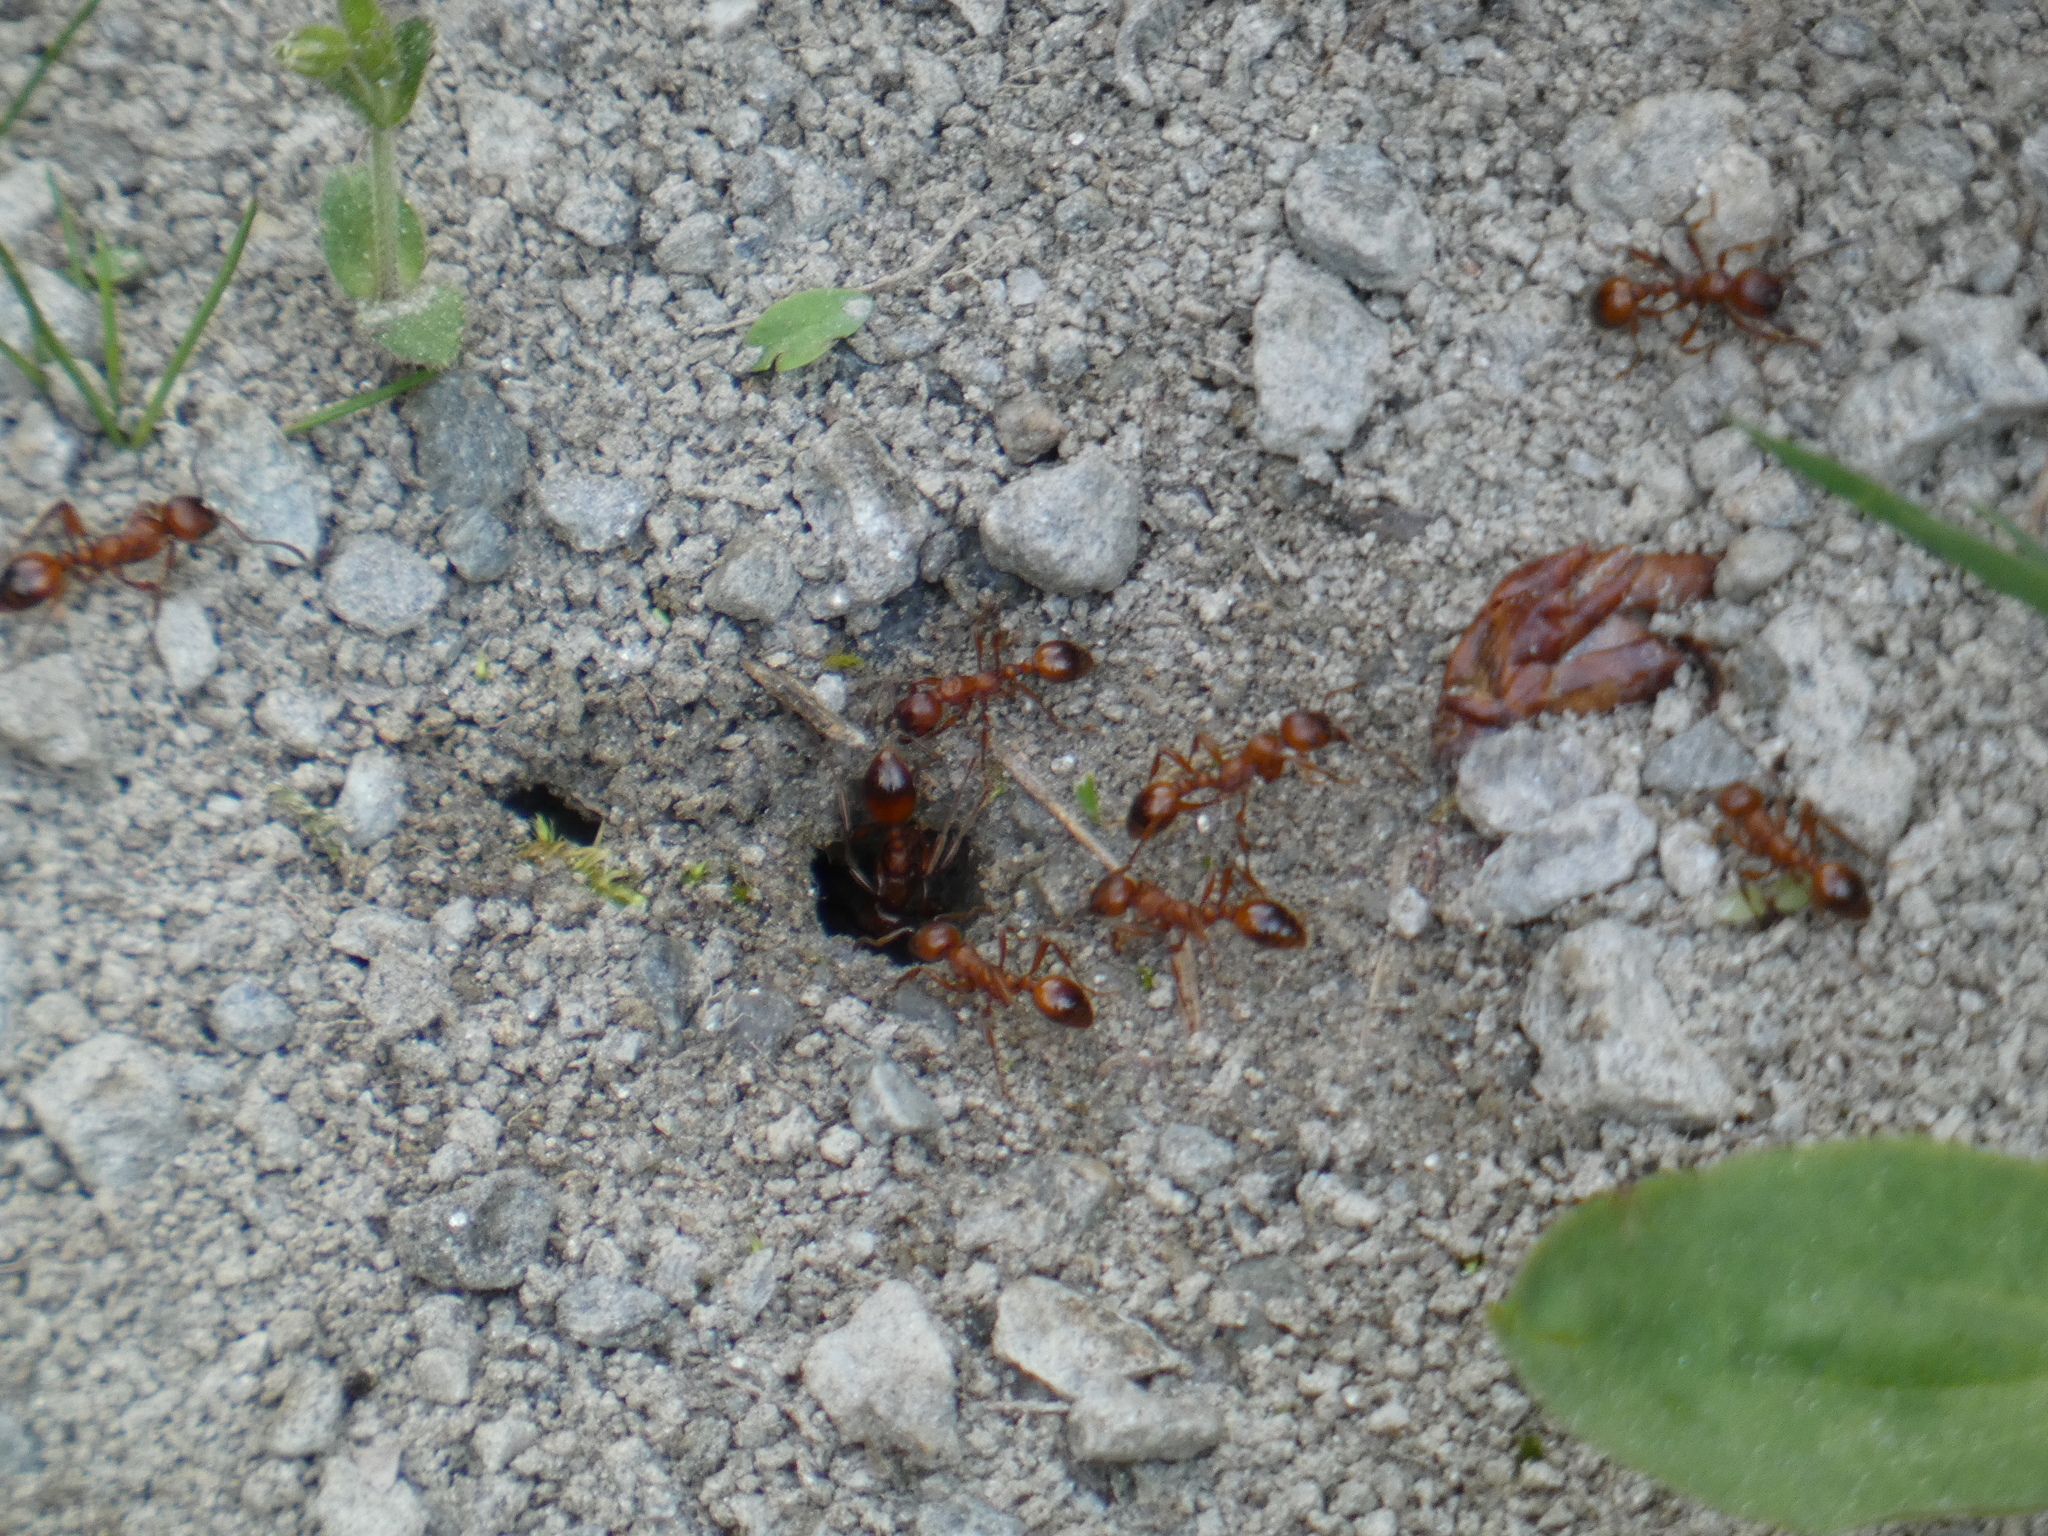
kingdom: Animalia
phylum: Arthropoda
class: Insecta
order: Hymenoptera
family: Formicidae
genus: Manica
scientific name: Manica rubida
